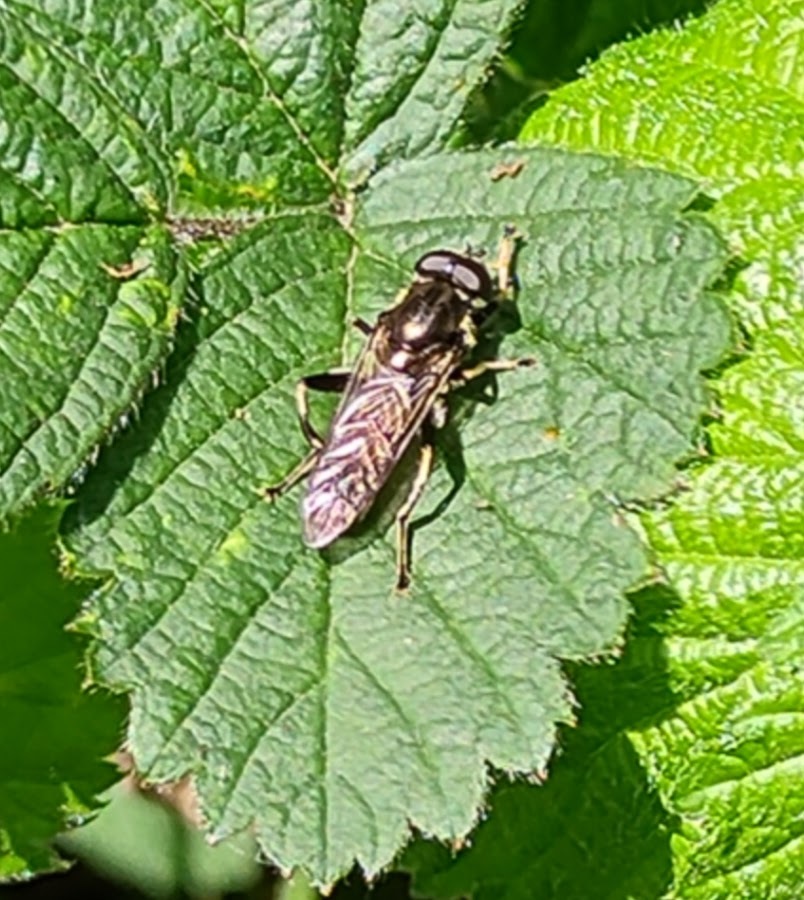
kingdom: Animalia
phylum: Arthropoda
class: Insecta
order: Diptera
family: Syrphidae
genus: Xylota
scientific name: Xylota
